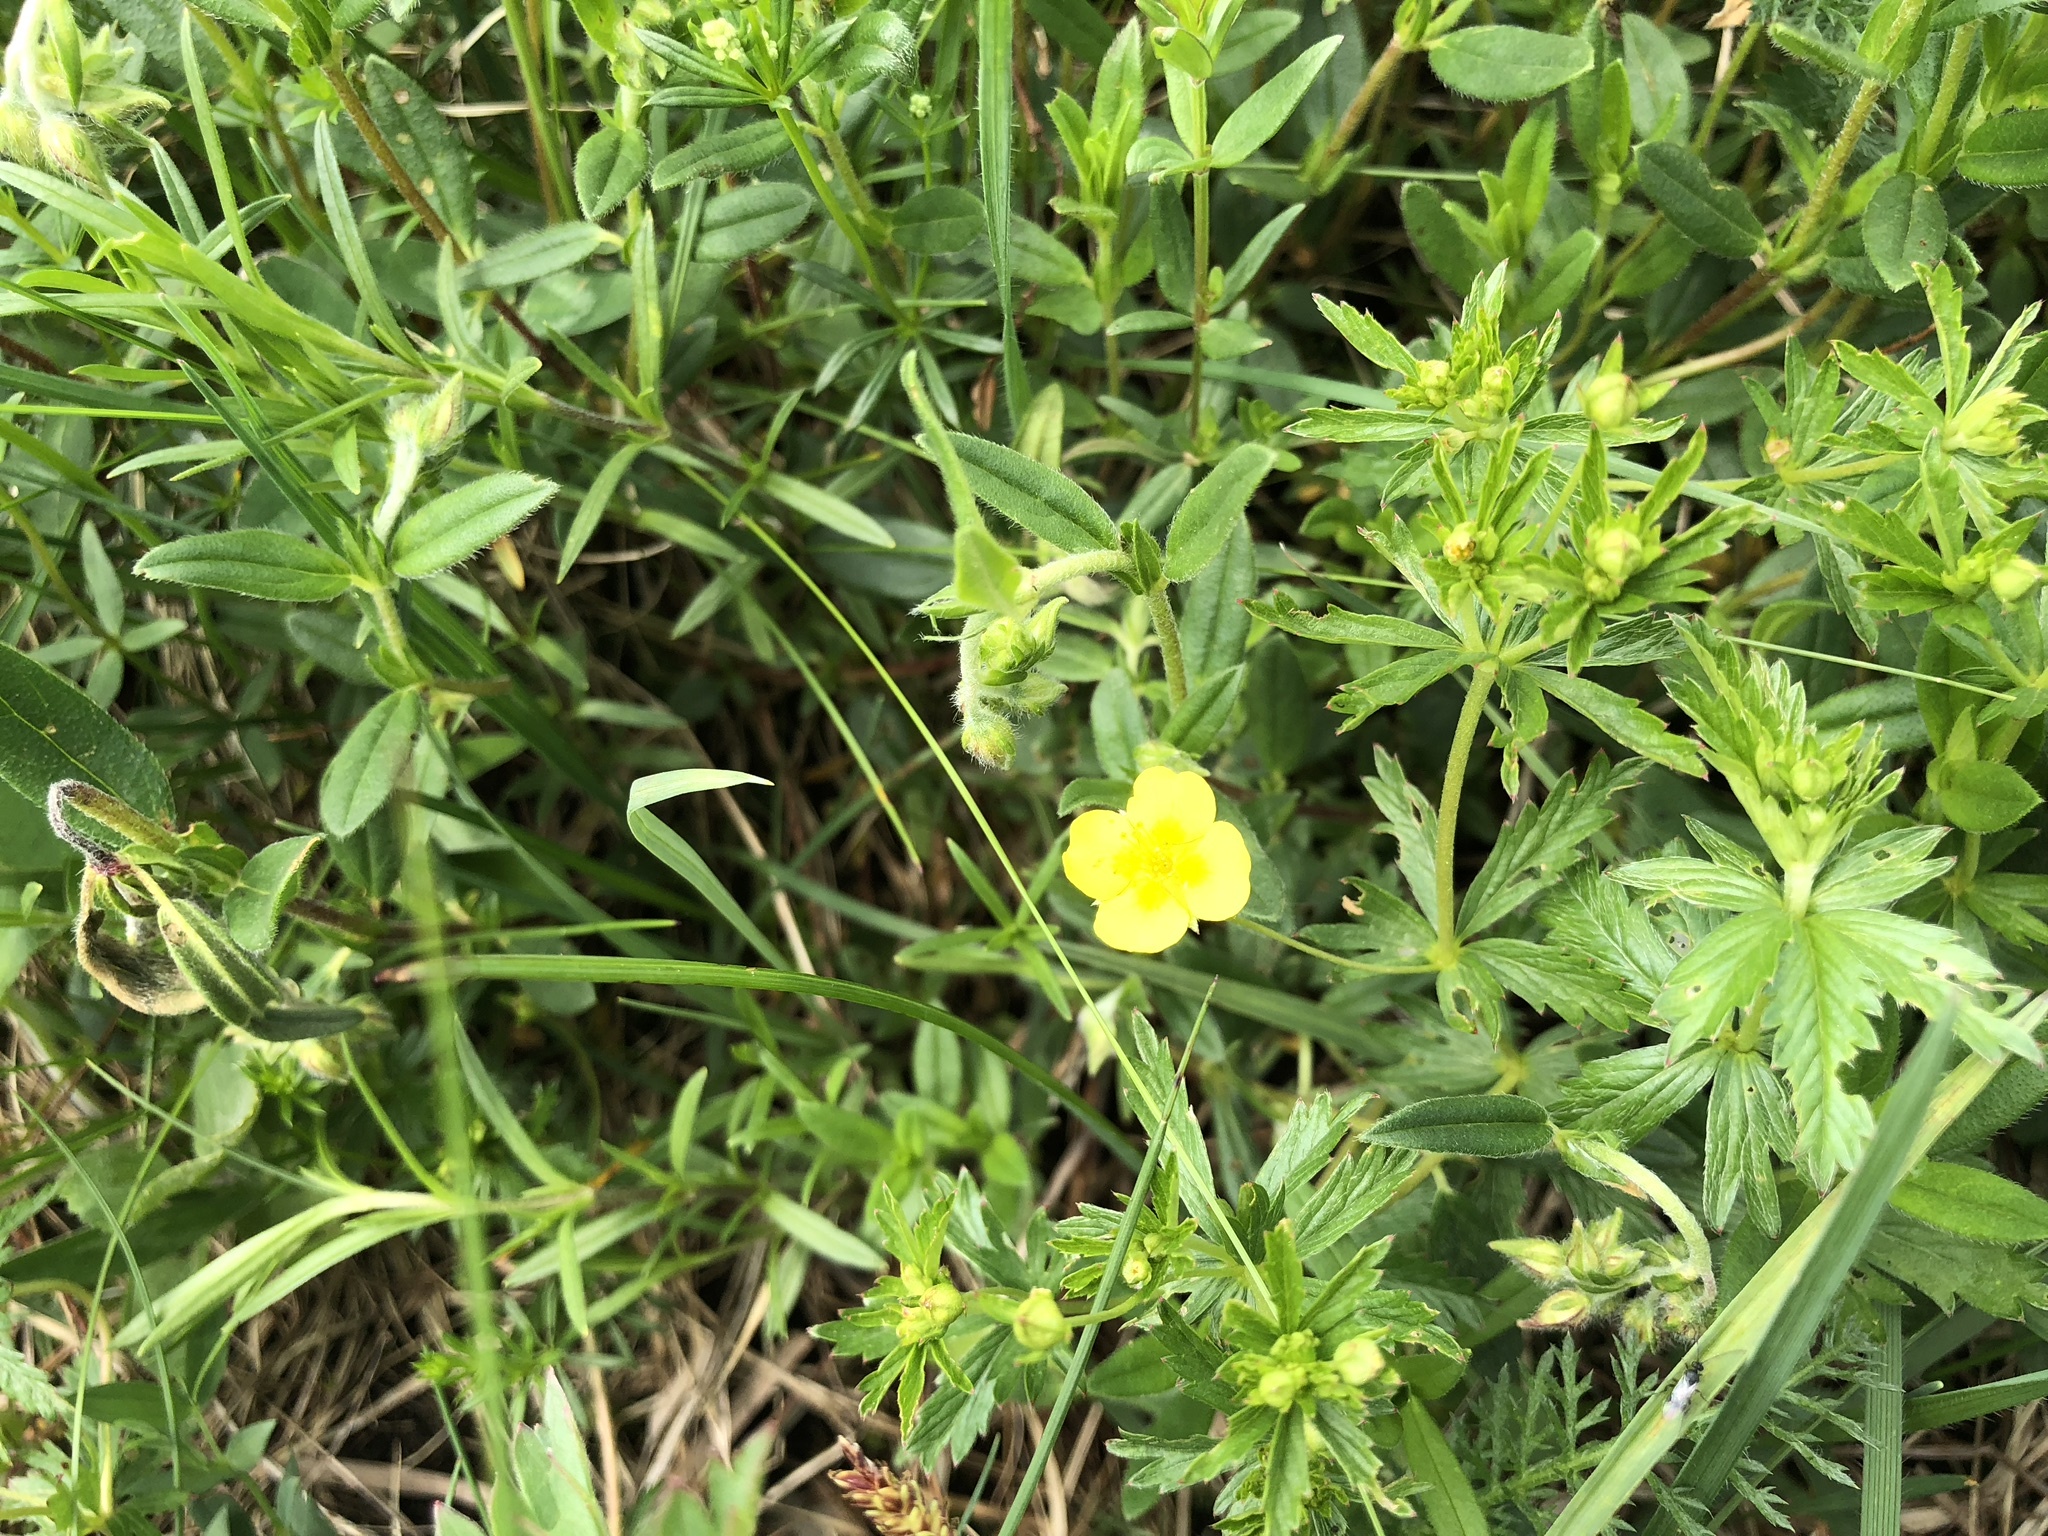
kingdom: Plantae
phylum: Tracheophyta
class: Magnoliopsida
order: Rosales
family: Rosaceae
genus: Potentilla
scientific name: Potentilla erecta
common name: Tormentil
